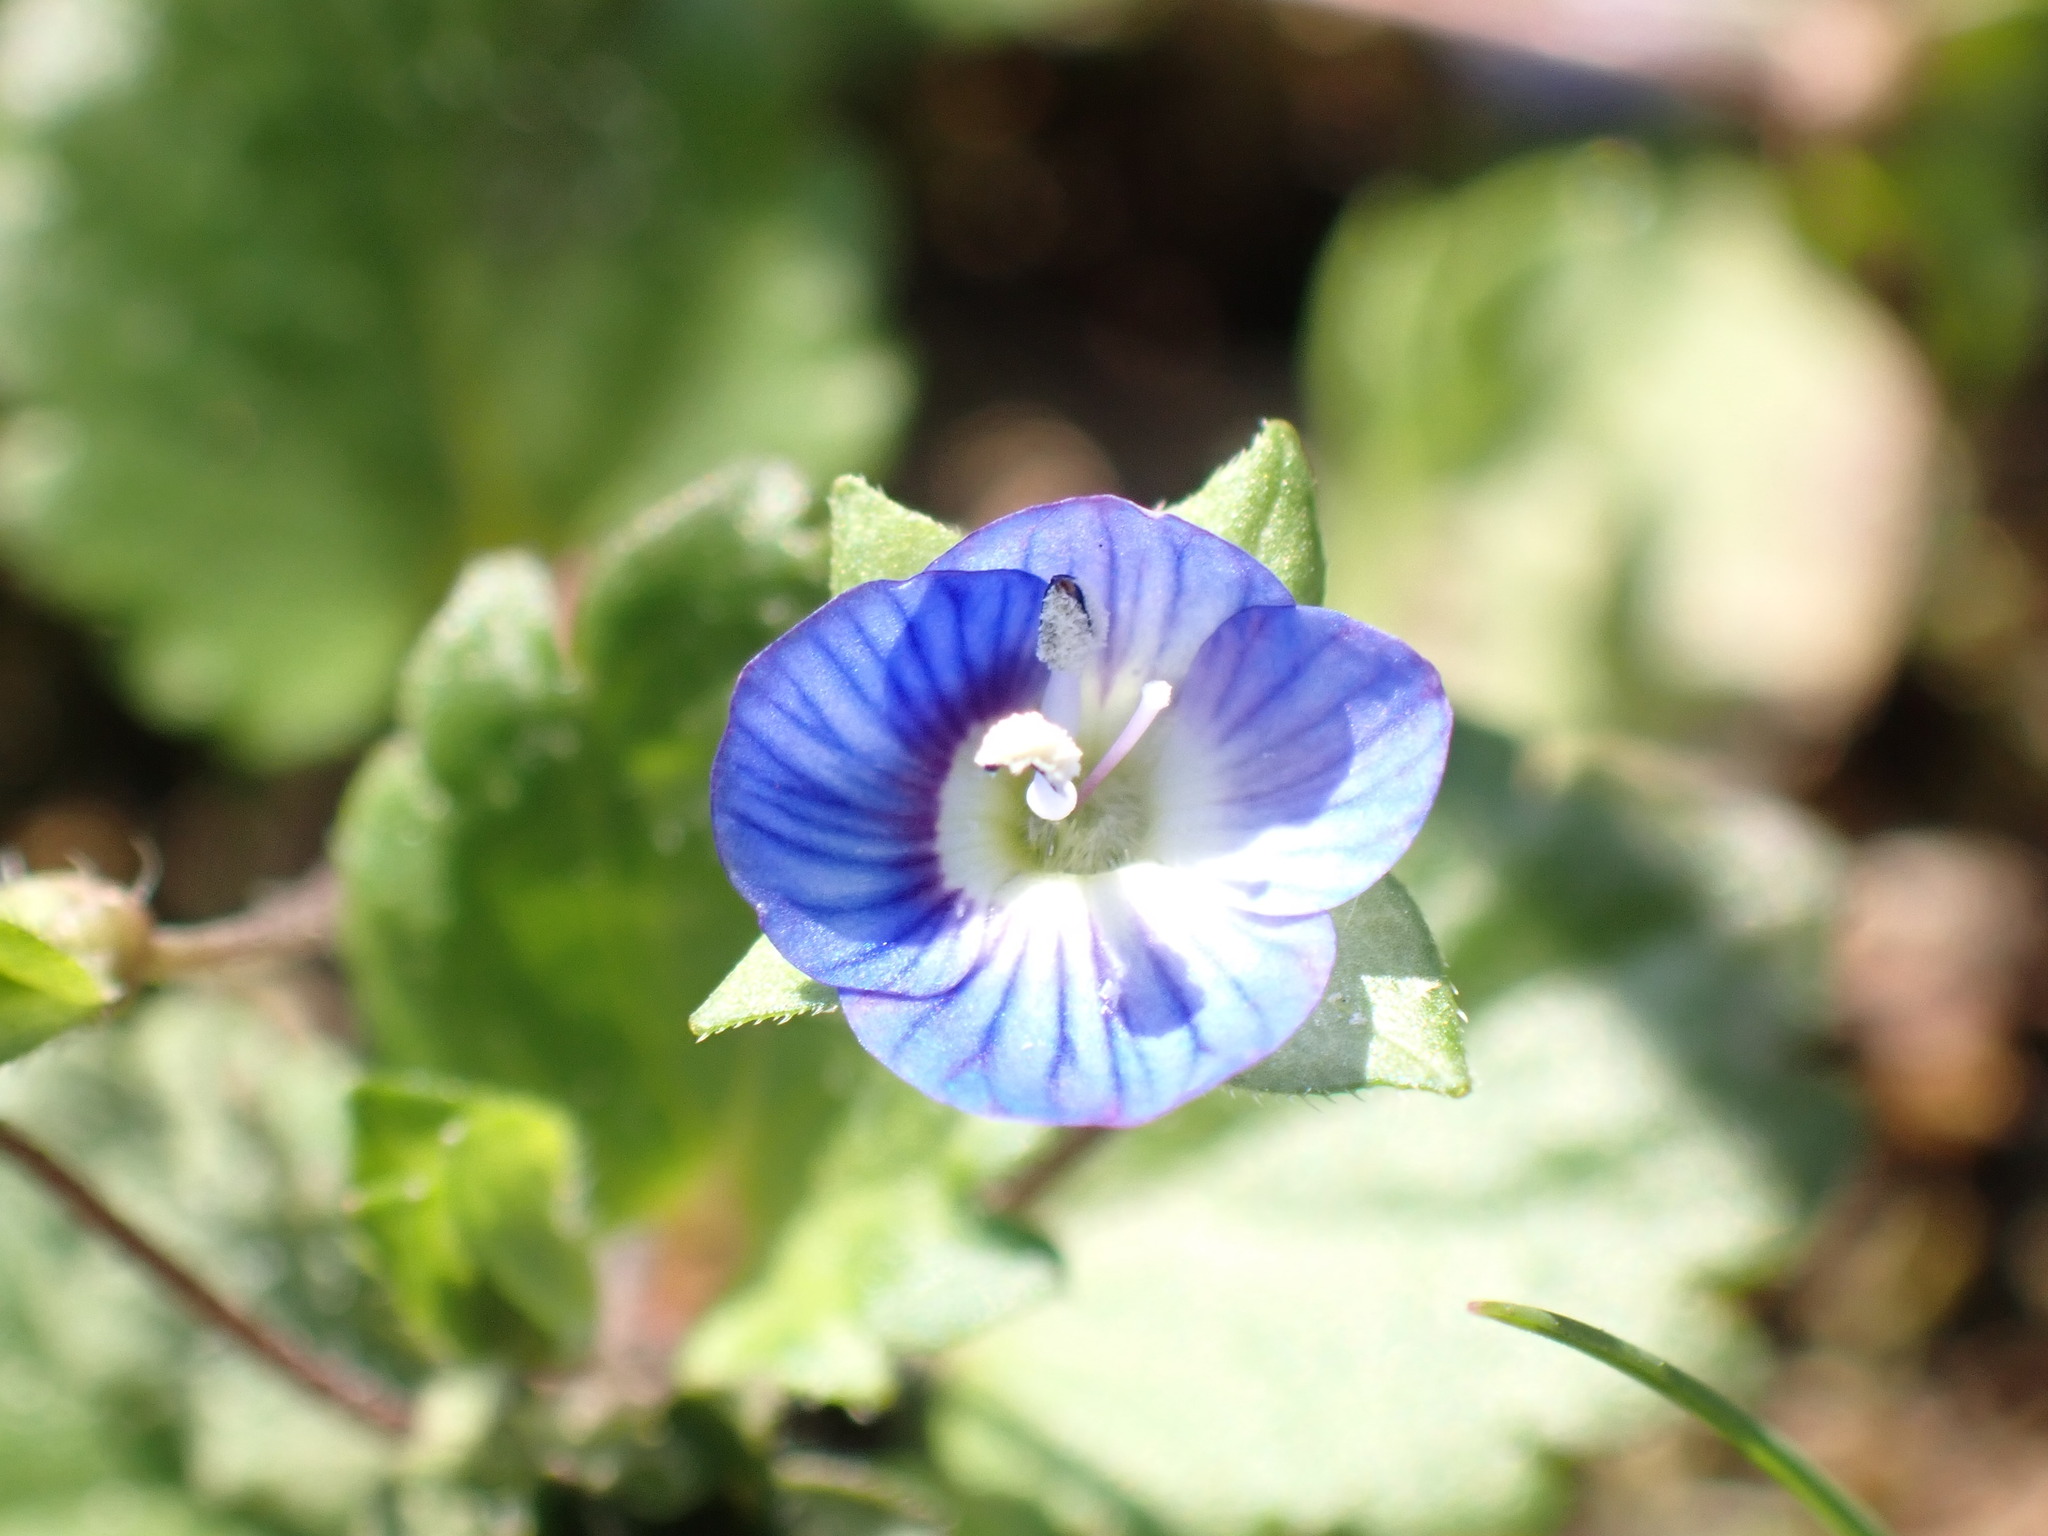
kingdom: Plantae
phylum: Tracheophyta
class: Magnoliopsida
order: Lamiales
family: Plantaginaceae
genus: Veronica
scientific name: Veronica persica
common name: Common field-speedwell
